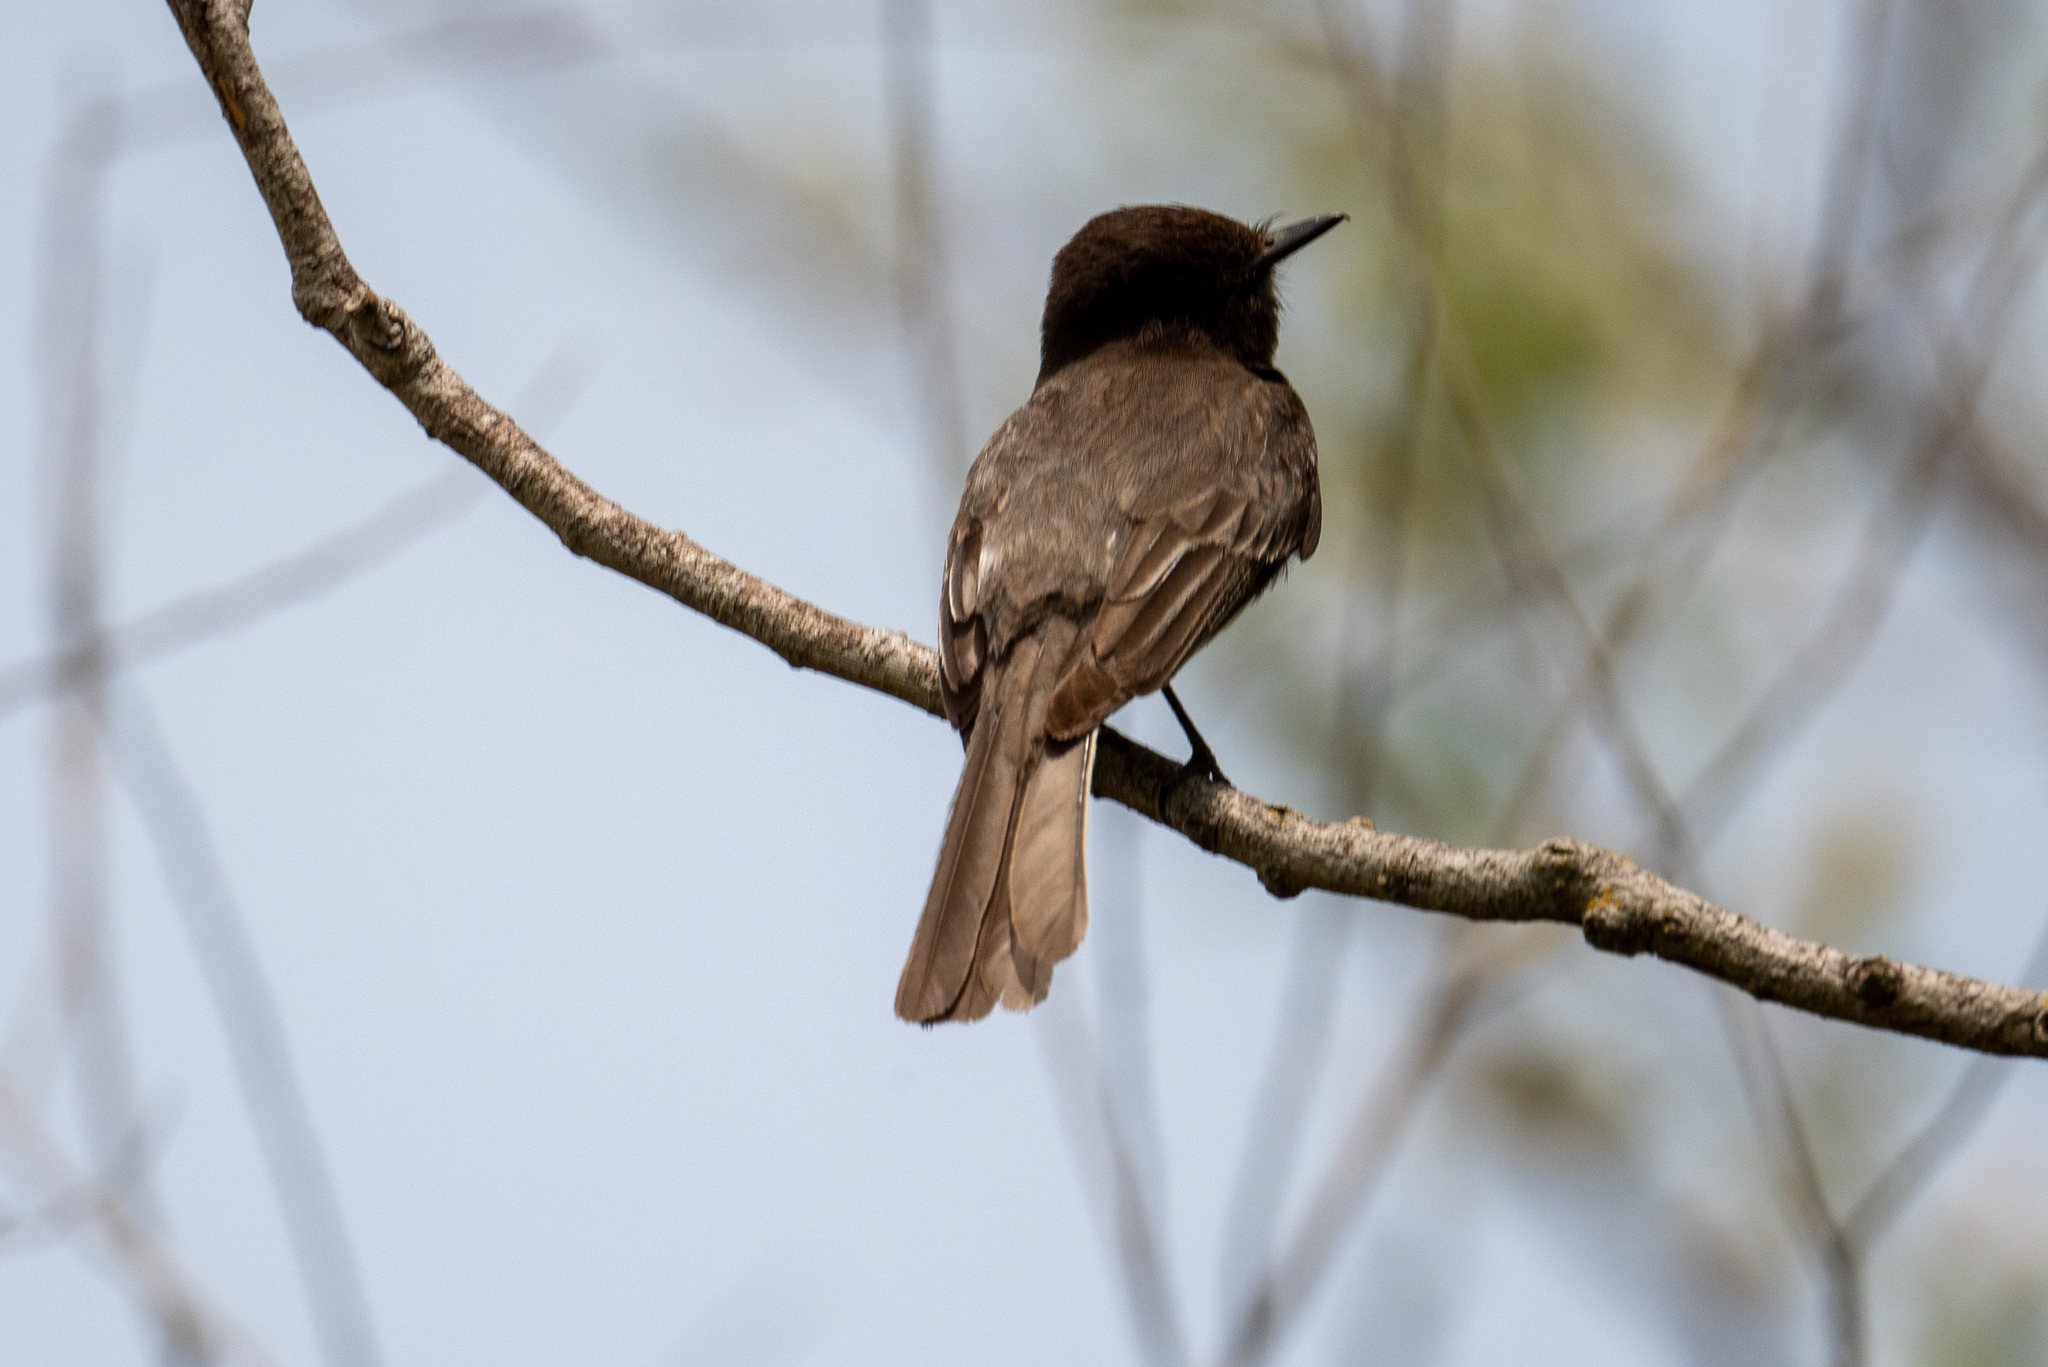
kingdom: Animalia
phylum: Chordata
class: Aves
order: Passeriformes
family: Tyrannidae
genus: Sayornis
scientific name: Sayornis nigricans
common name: Black phoebe
